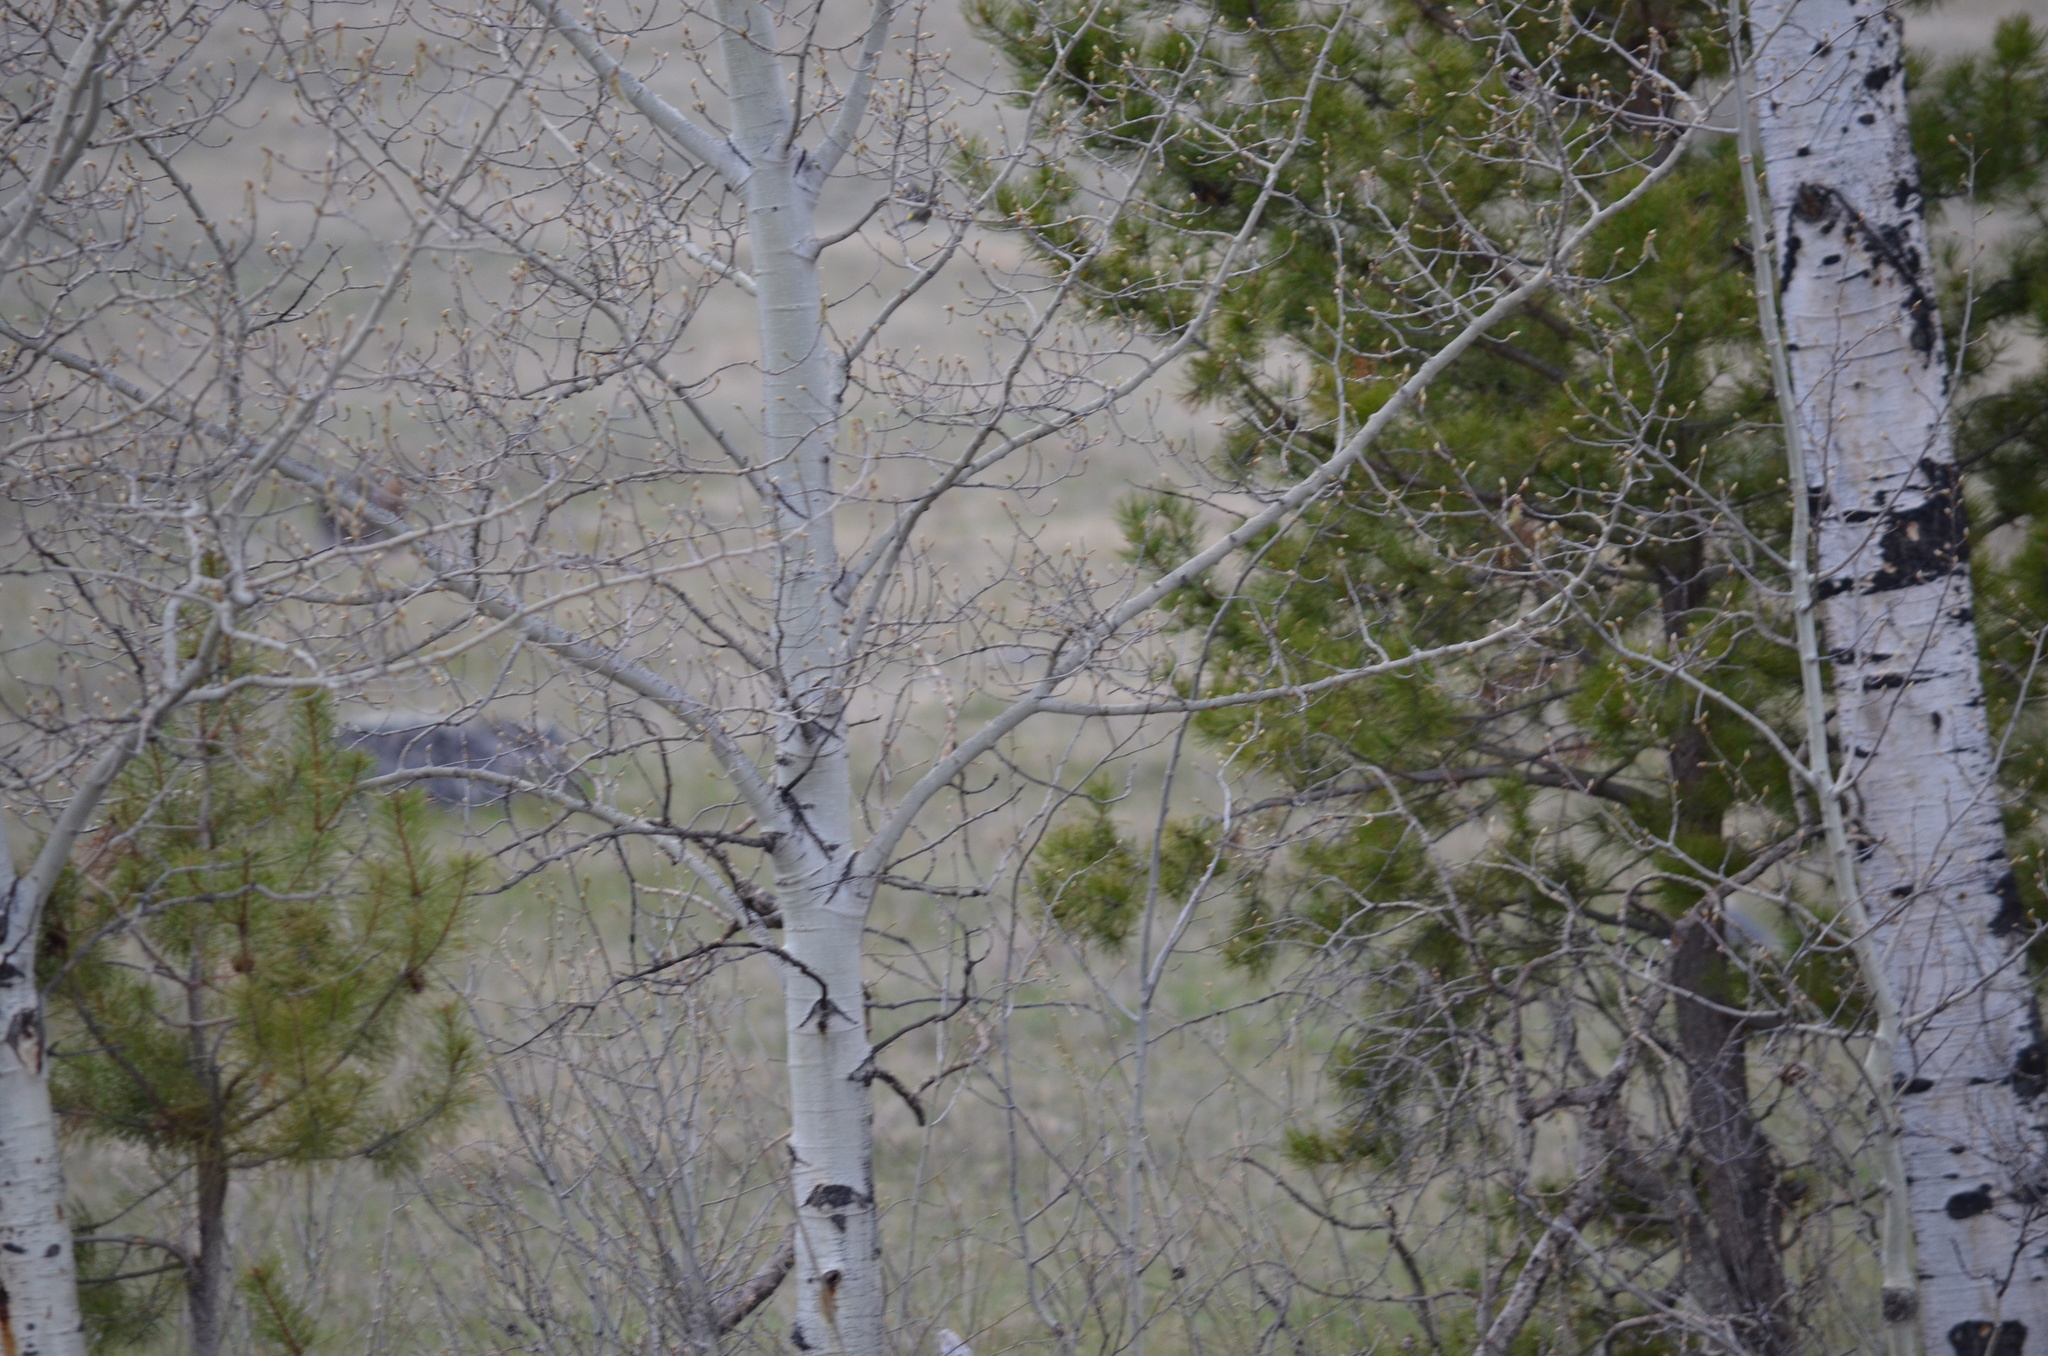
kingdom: Plantae
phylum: Tracheophyta
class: Magnoliopsida
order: Malpighiales
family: Salicaceae
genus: Populus
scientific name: Populus tremuloides
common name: Quaking aspen
